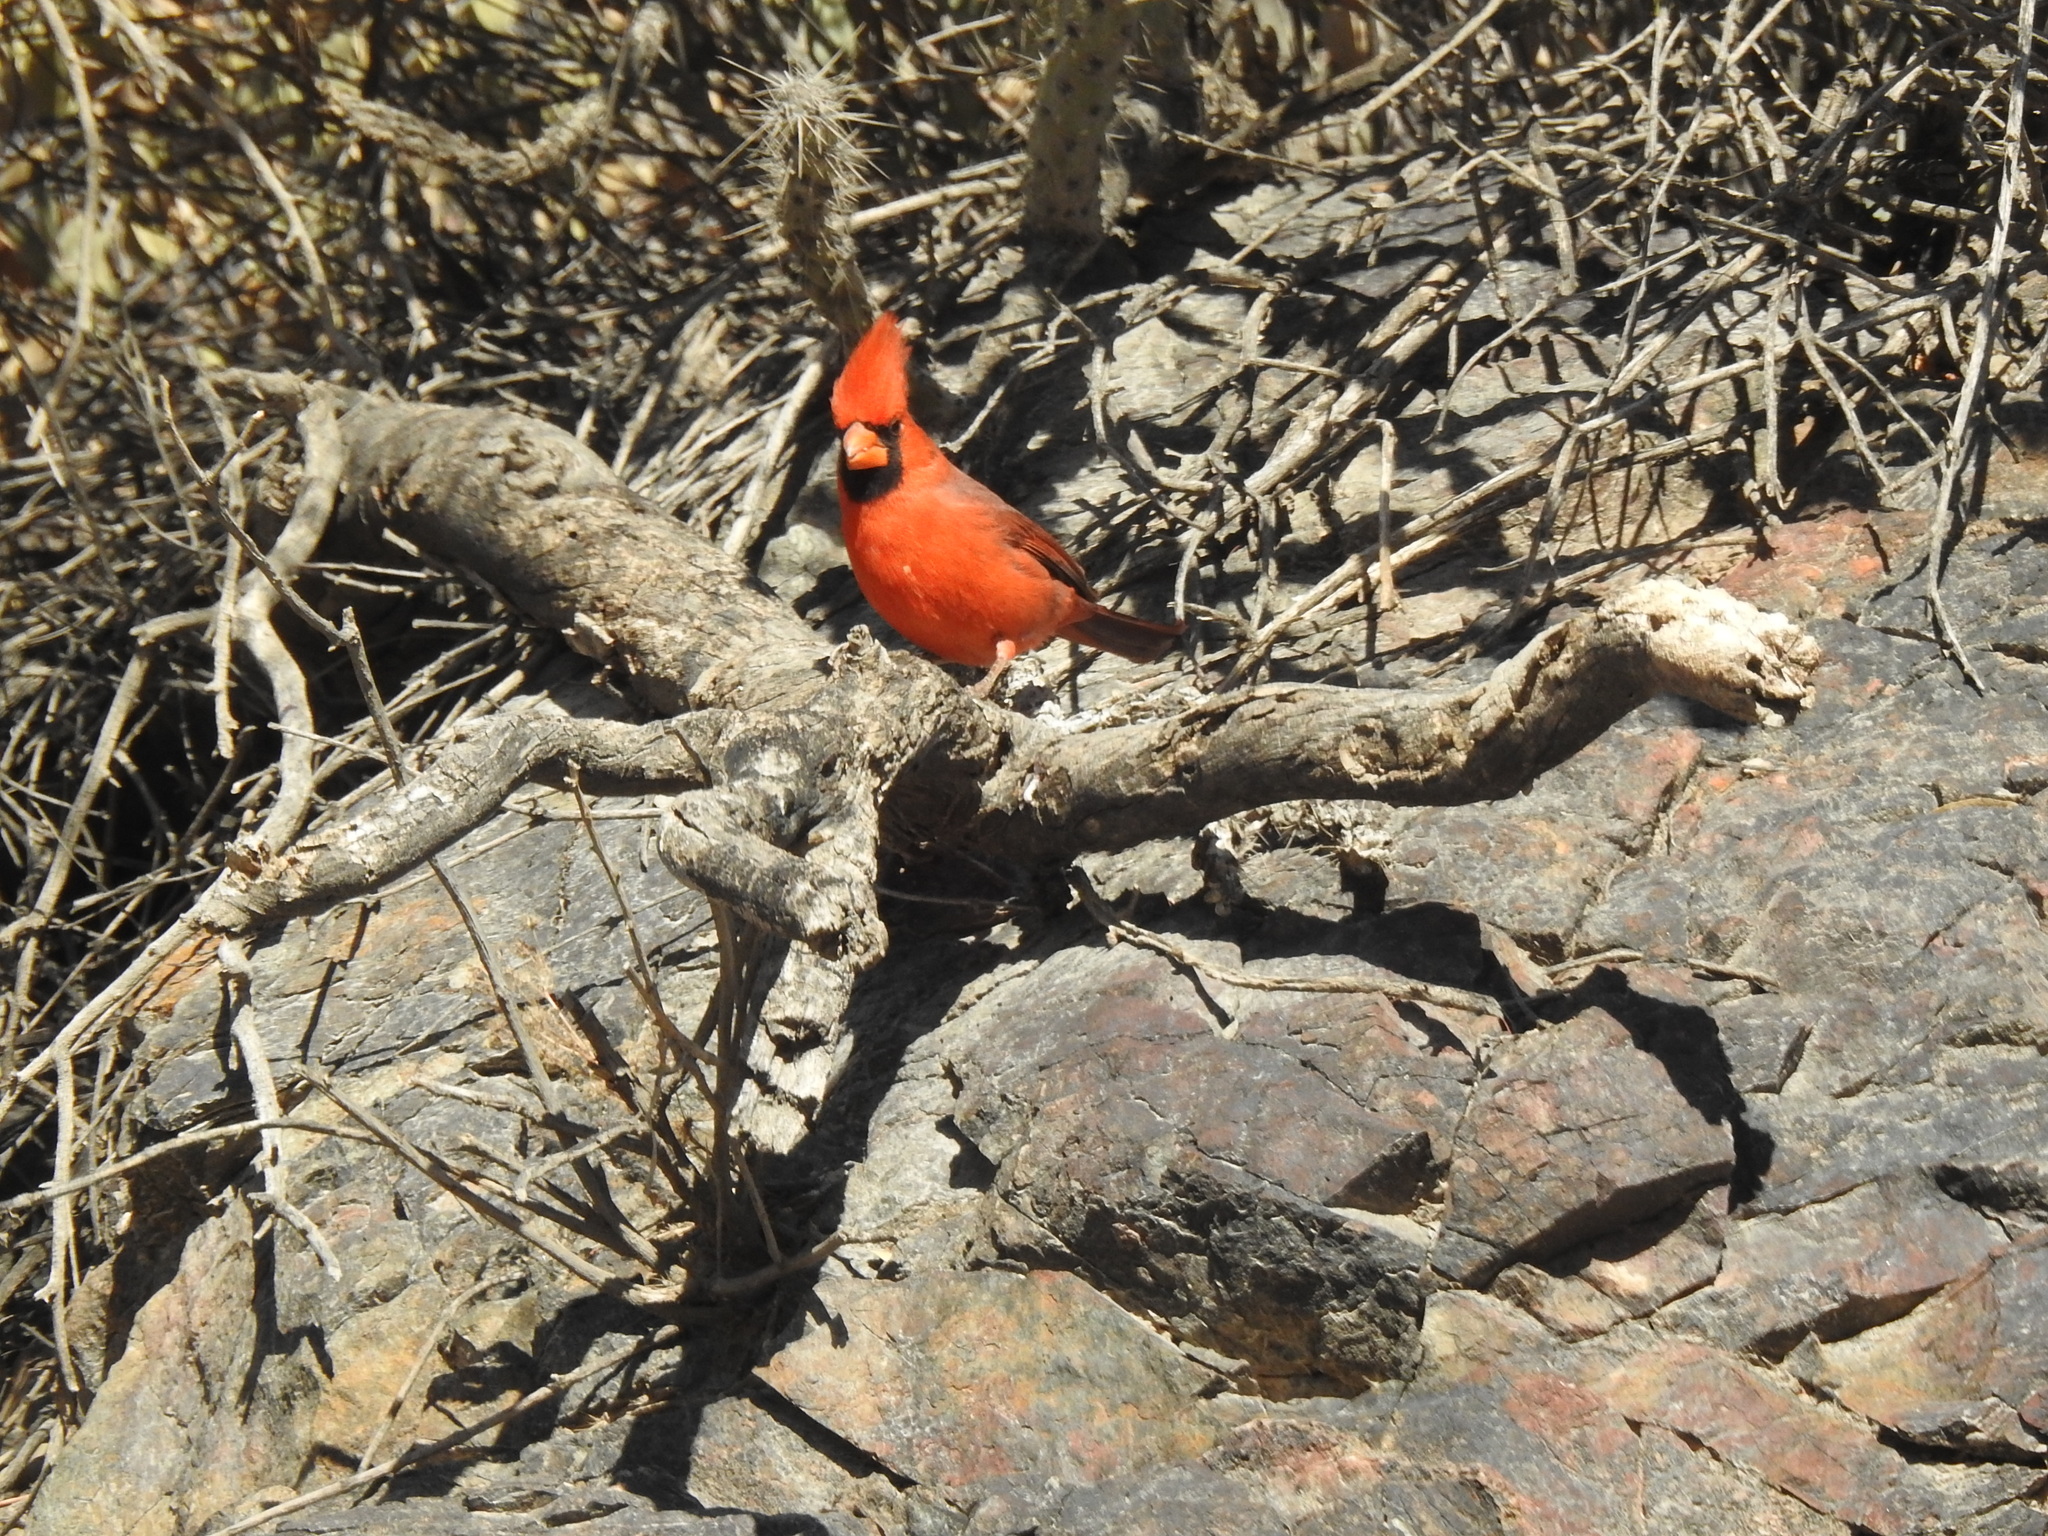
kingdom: Animalia
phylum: Chordata
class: Aves
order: Passeriformes
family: Cardinalidae
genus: Cardinalis
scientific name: Cardinalis cardinalis
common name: Northern cardinal
